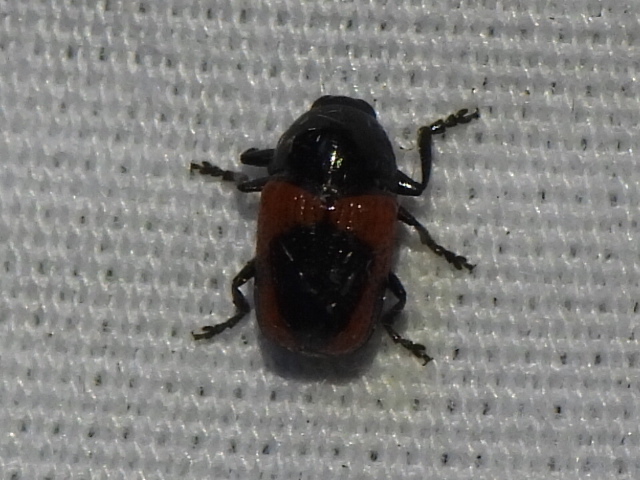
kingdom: Animalia
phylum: Arthropoda
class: Insecta
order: Coleoptera
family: Chrysomelidae
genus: Cryptocephalus
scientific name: Cryptocephalus notatus
